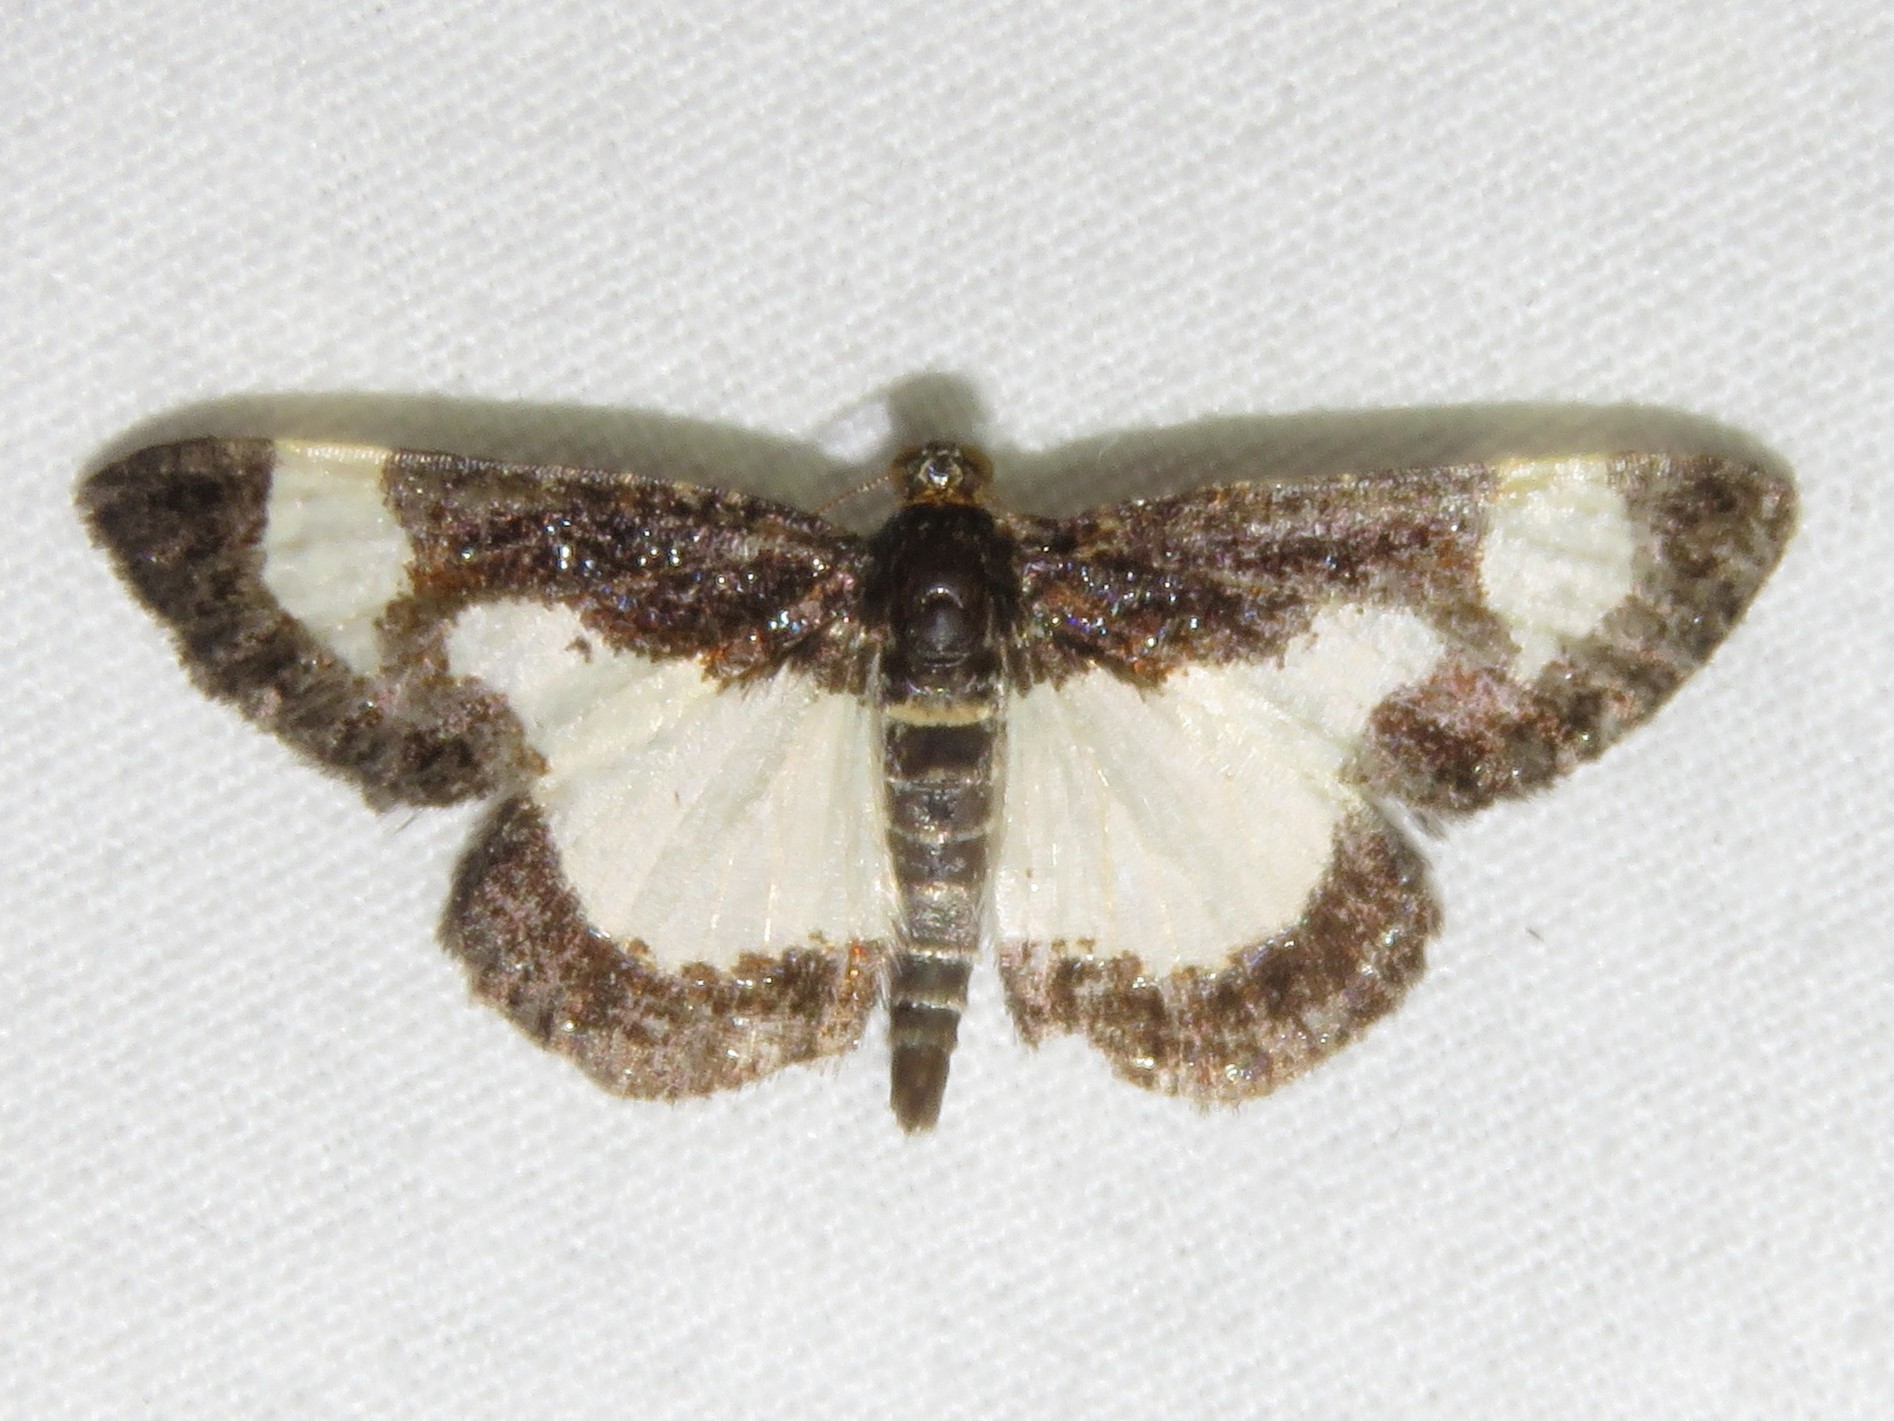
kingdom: Animalia
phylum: Arthropoda
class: Insecta
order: Lepidoptera
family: Geometridae
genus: Heliomata
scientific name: Heliomata cycladata
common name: Common spring moth
